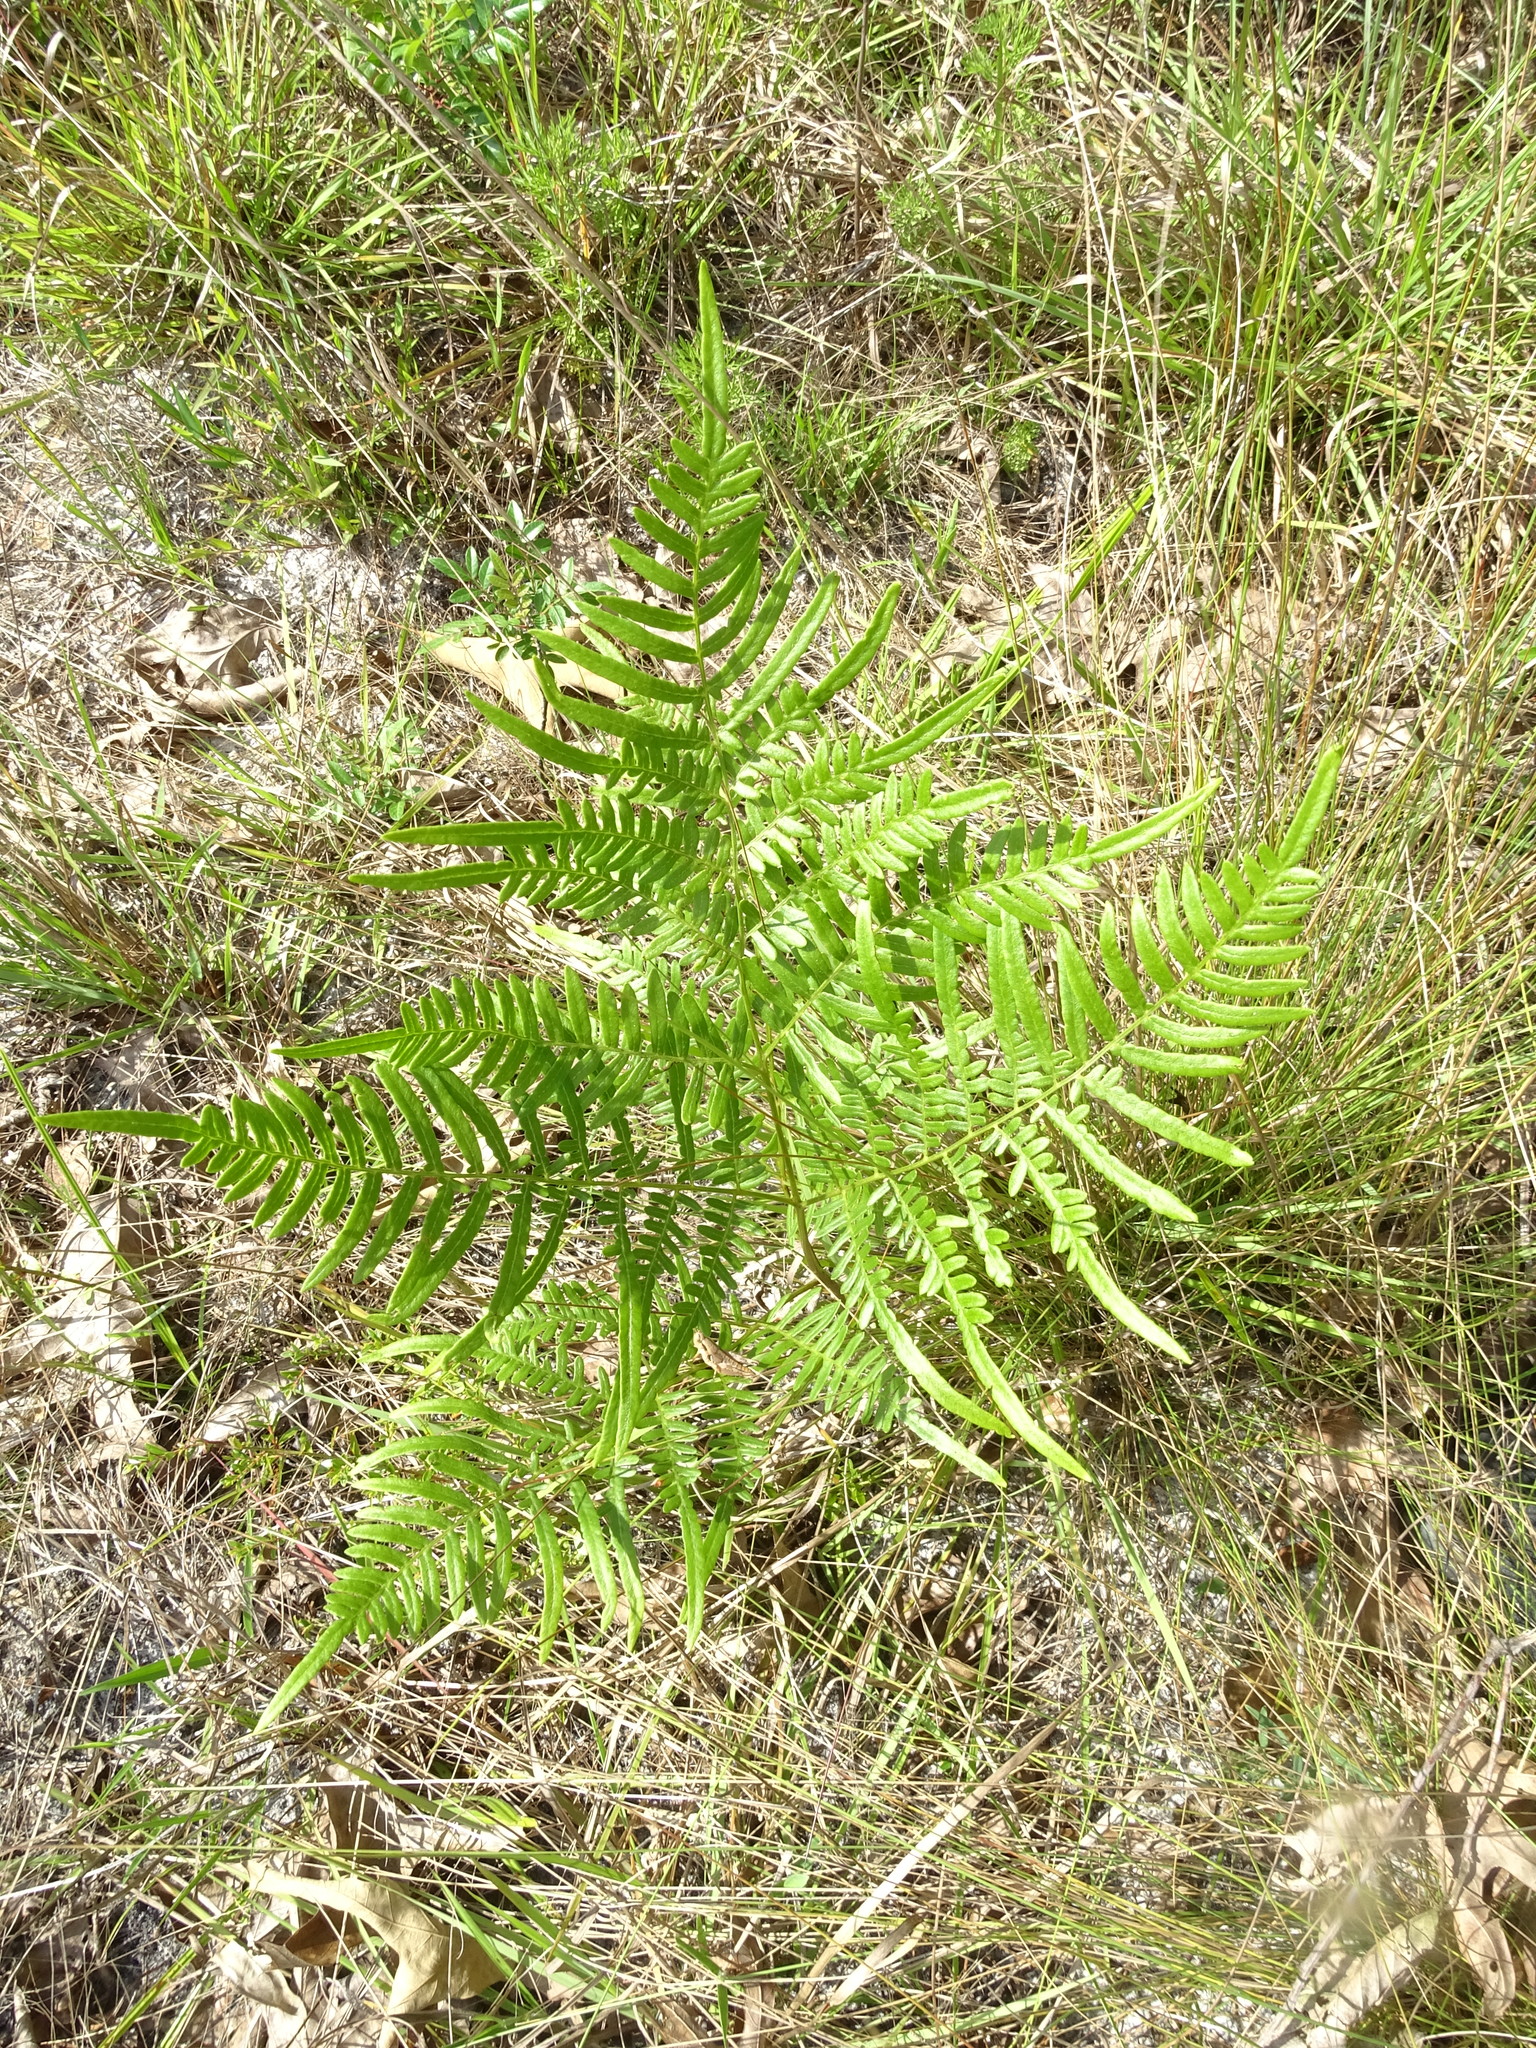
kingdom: Plantae
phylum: Tracheophyta
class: Polypodiopsida
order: Polypodiales
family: Dennstaedtiaceae
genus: Pteridium
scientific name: Pteridium aquilinum
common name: Bracken
